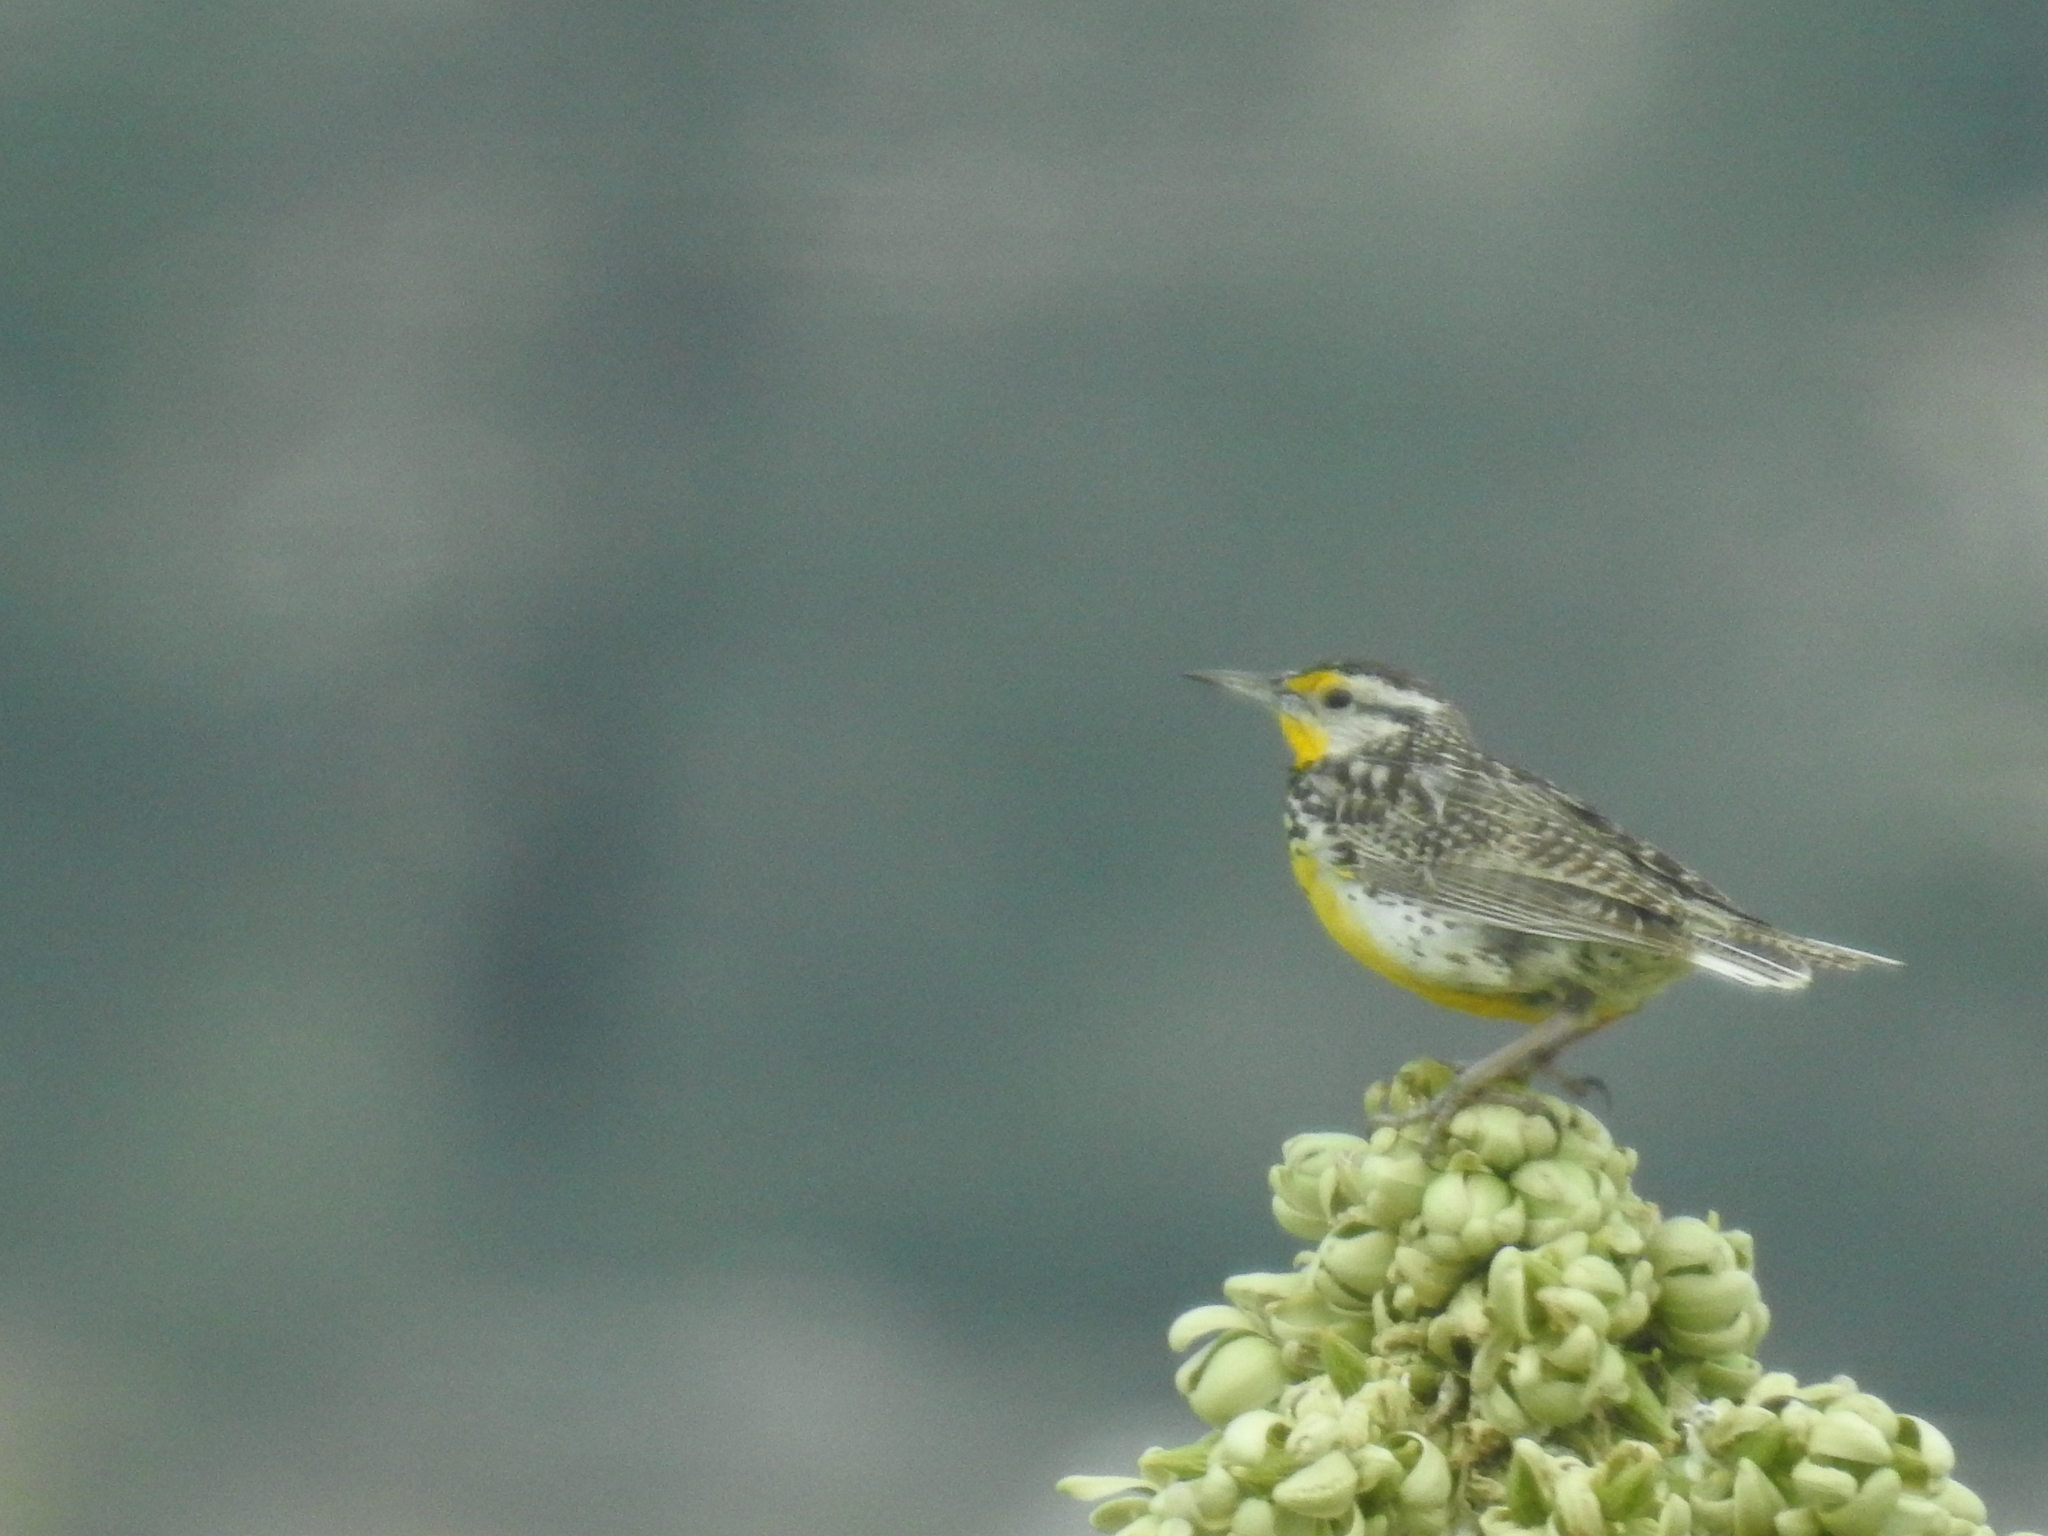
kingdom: Animalia
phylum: Chordata
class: Aves
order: Passeriformes
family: Icteridae
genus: Sturnella
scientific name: Sturnella neglecta
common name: Western meadowlark
